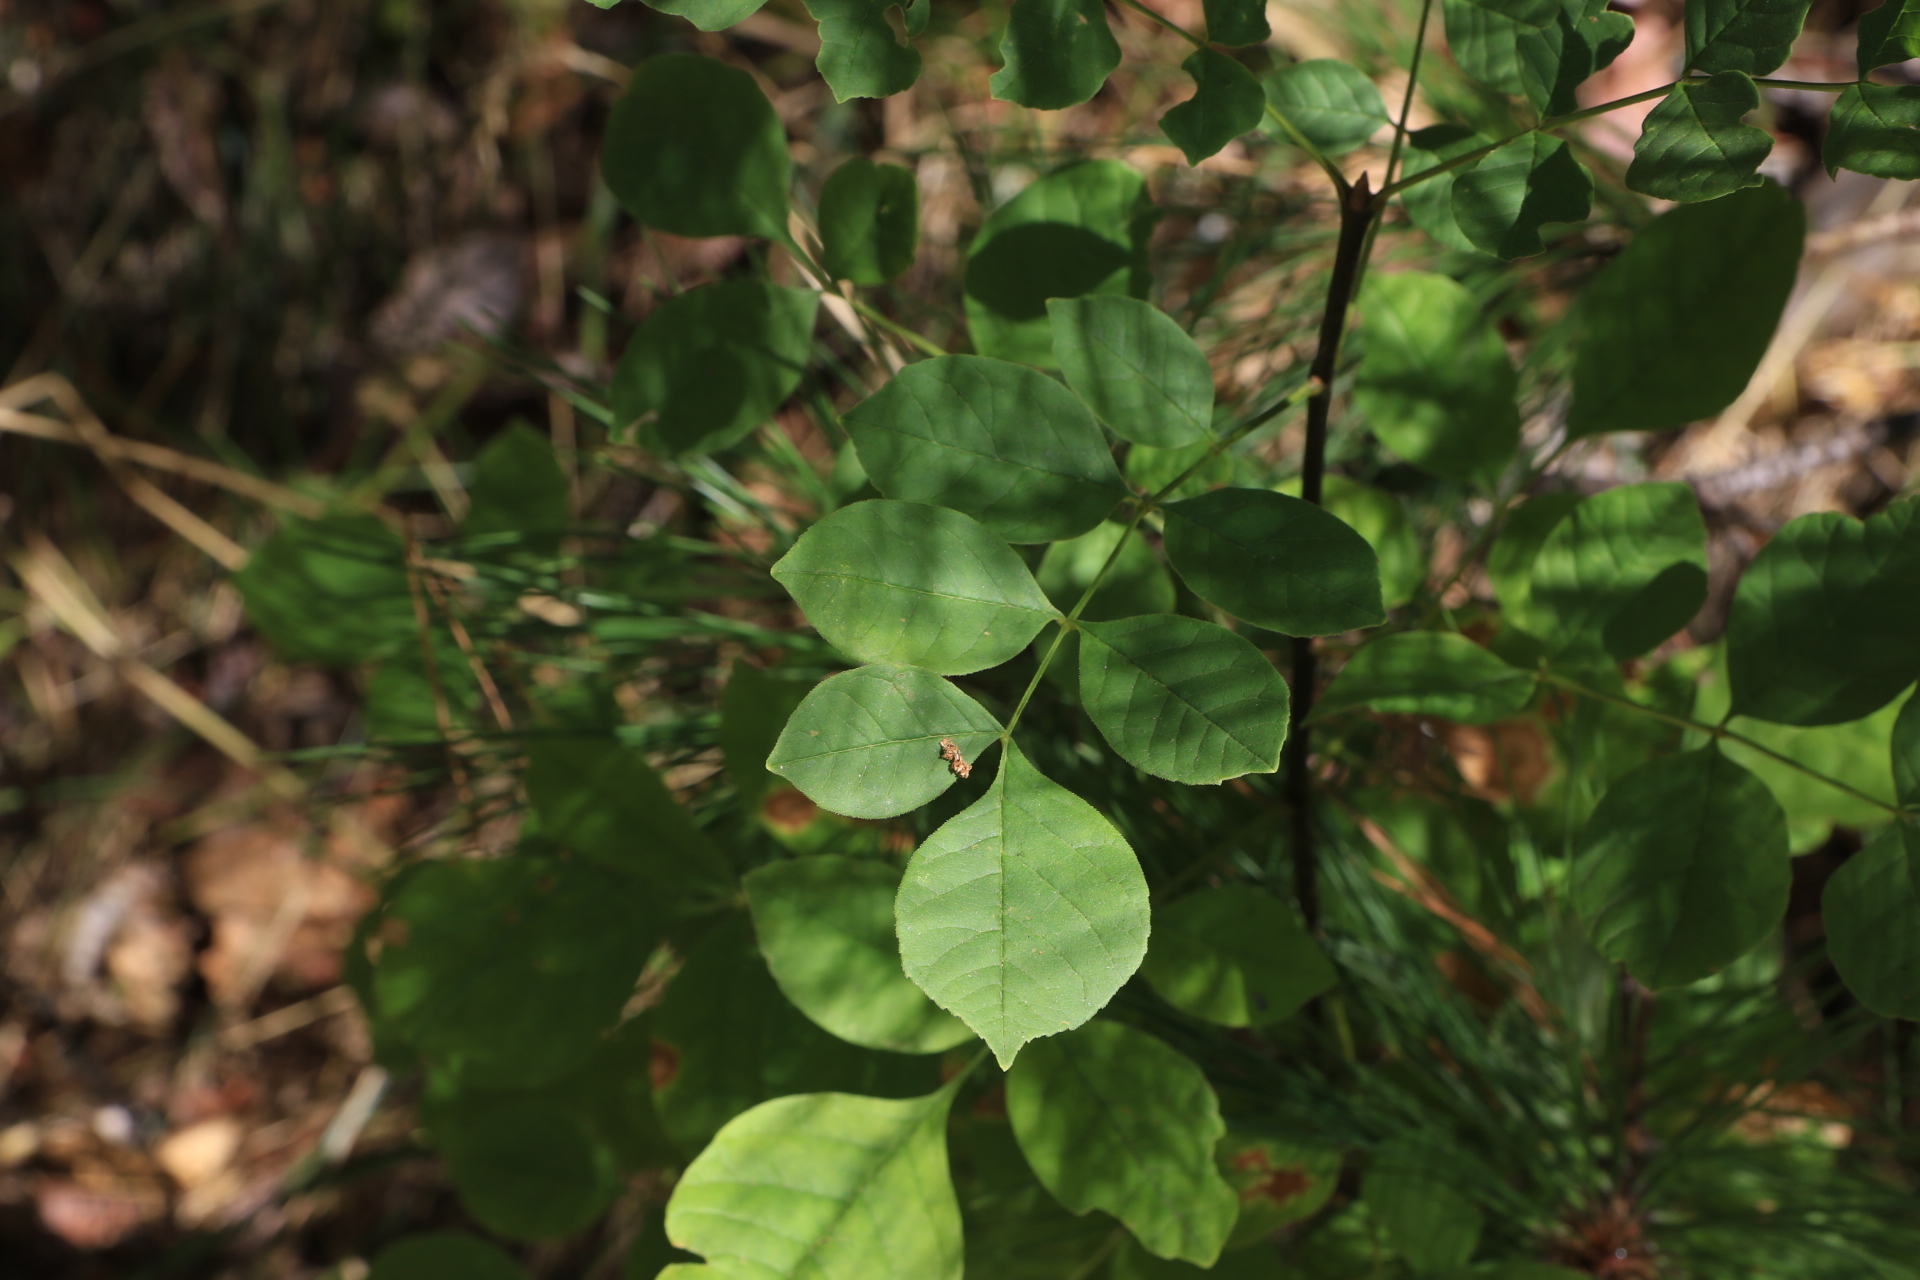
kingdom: Plantae
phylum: Tracheophyta
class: Magnoliopsida
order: Lamiales
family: Oleaceae
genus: Fraxinus
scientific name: Fraxinus latifolia
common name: Oregon ash
